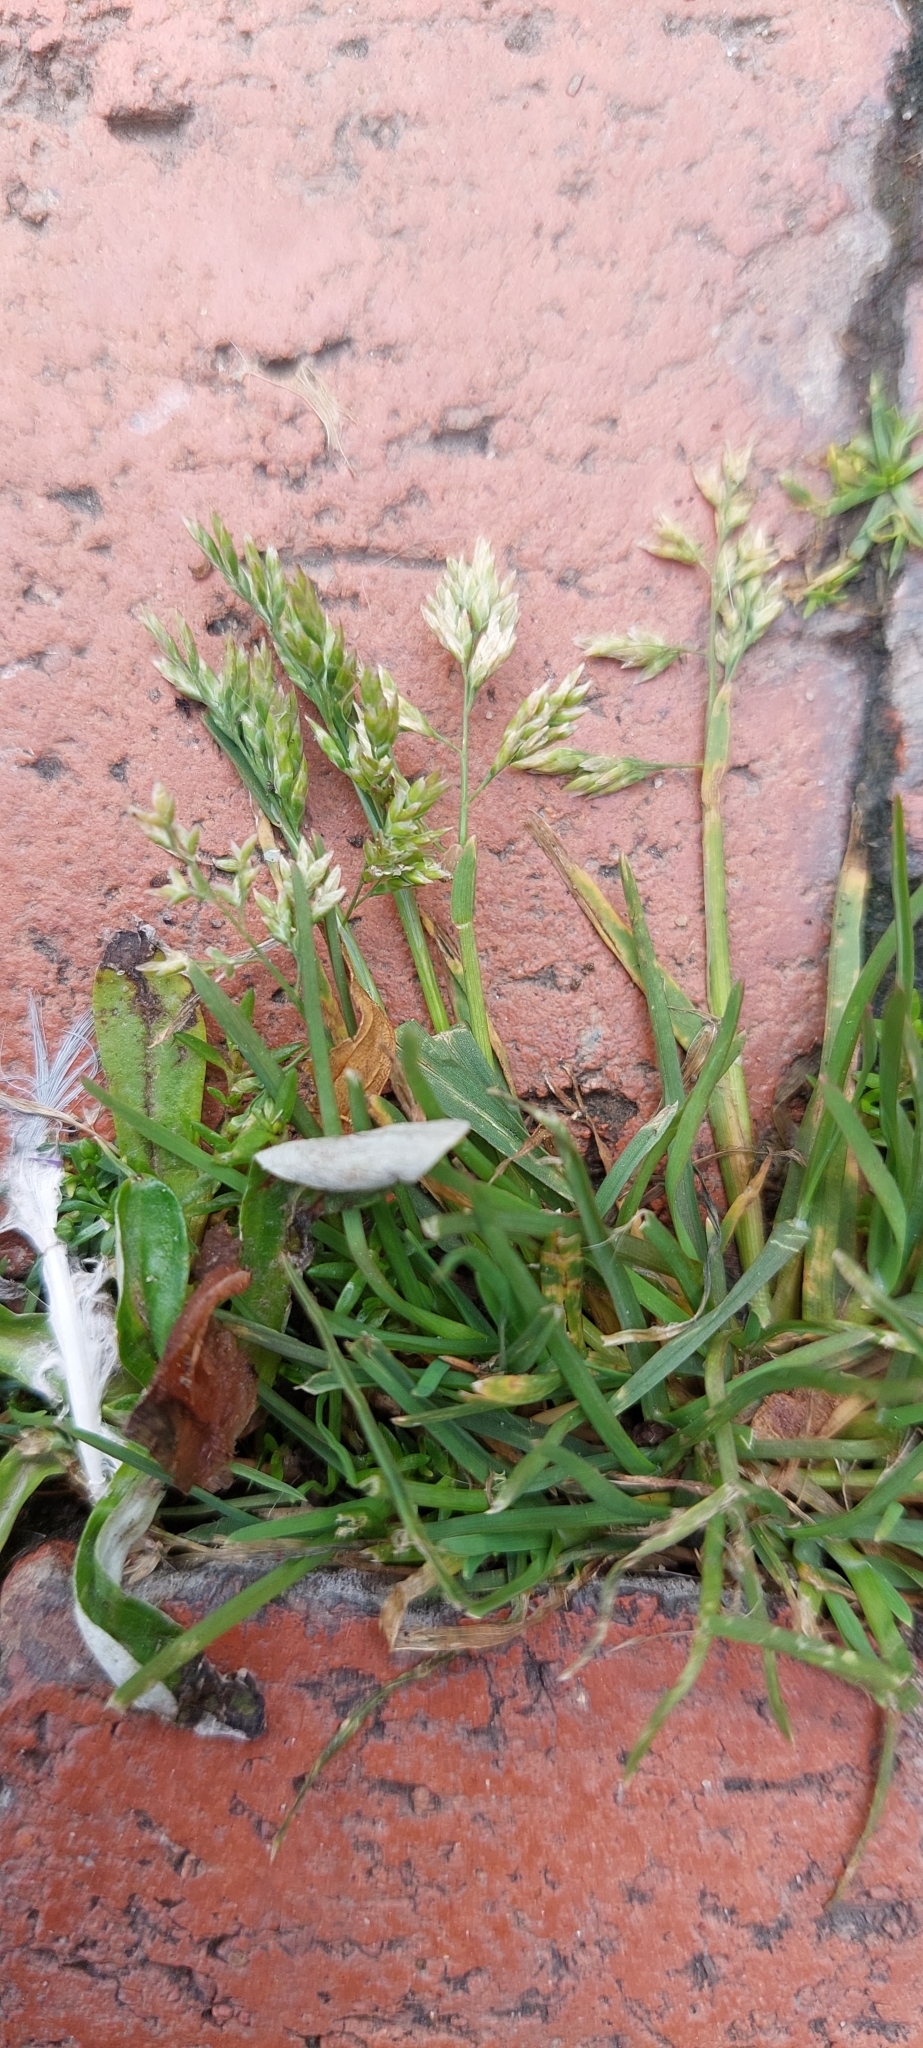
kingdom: Plantae
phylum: Tracheophyta
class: Liliopsida
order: Poales
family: Poaceae
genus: Poa
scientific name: Poa annua
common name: Annual bluegrass
